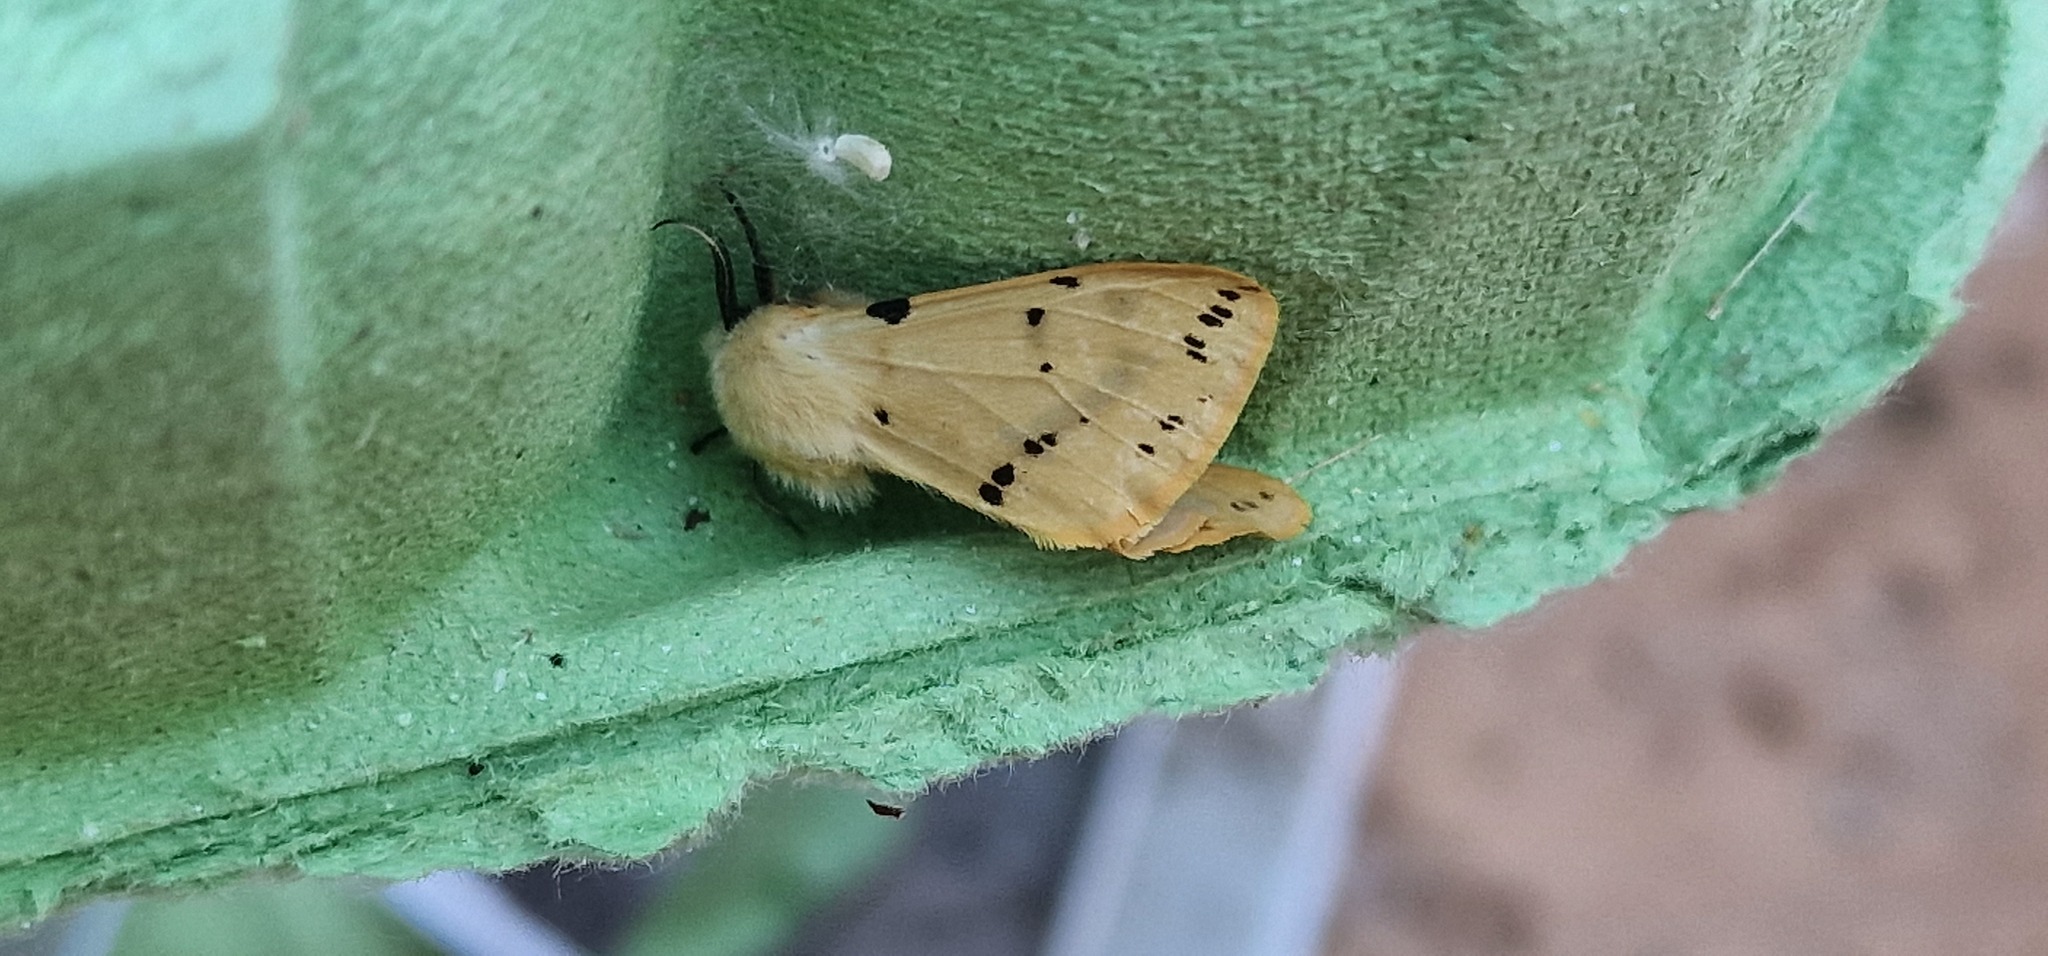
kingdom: Animalia
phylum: Arthropoda
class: Insecta
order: Lepidoptera
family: Erebidae
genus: Spilarctia
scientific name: Spilarctia lutea
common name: Buff ermine
